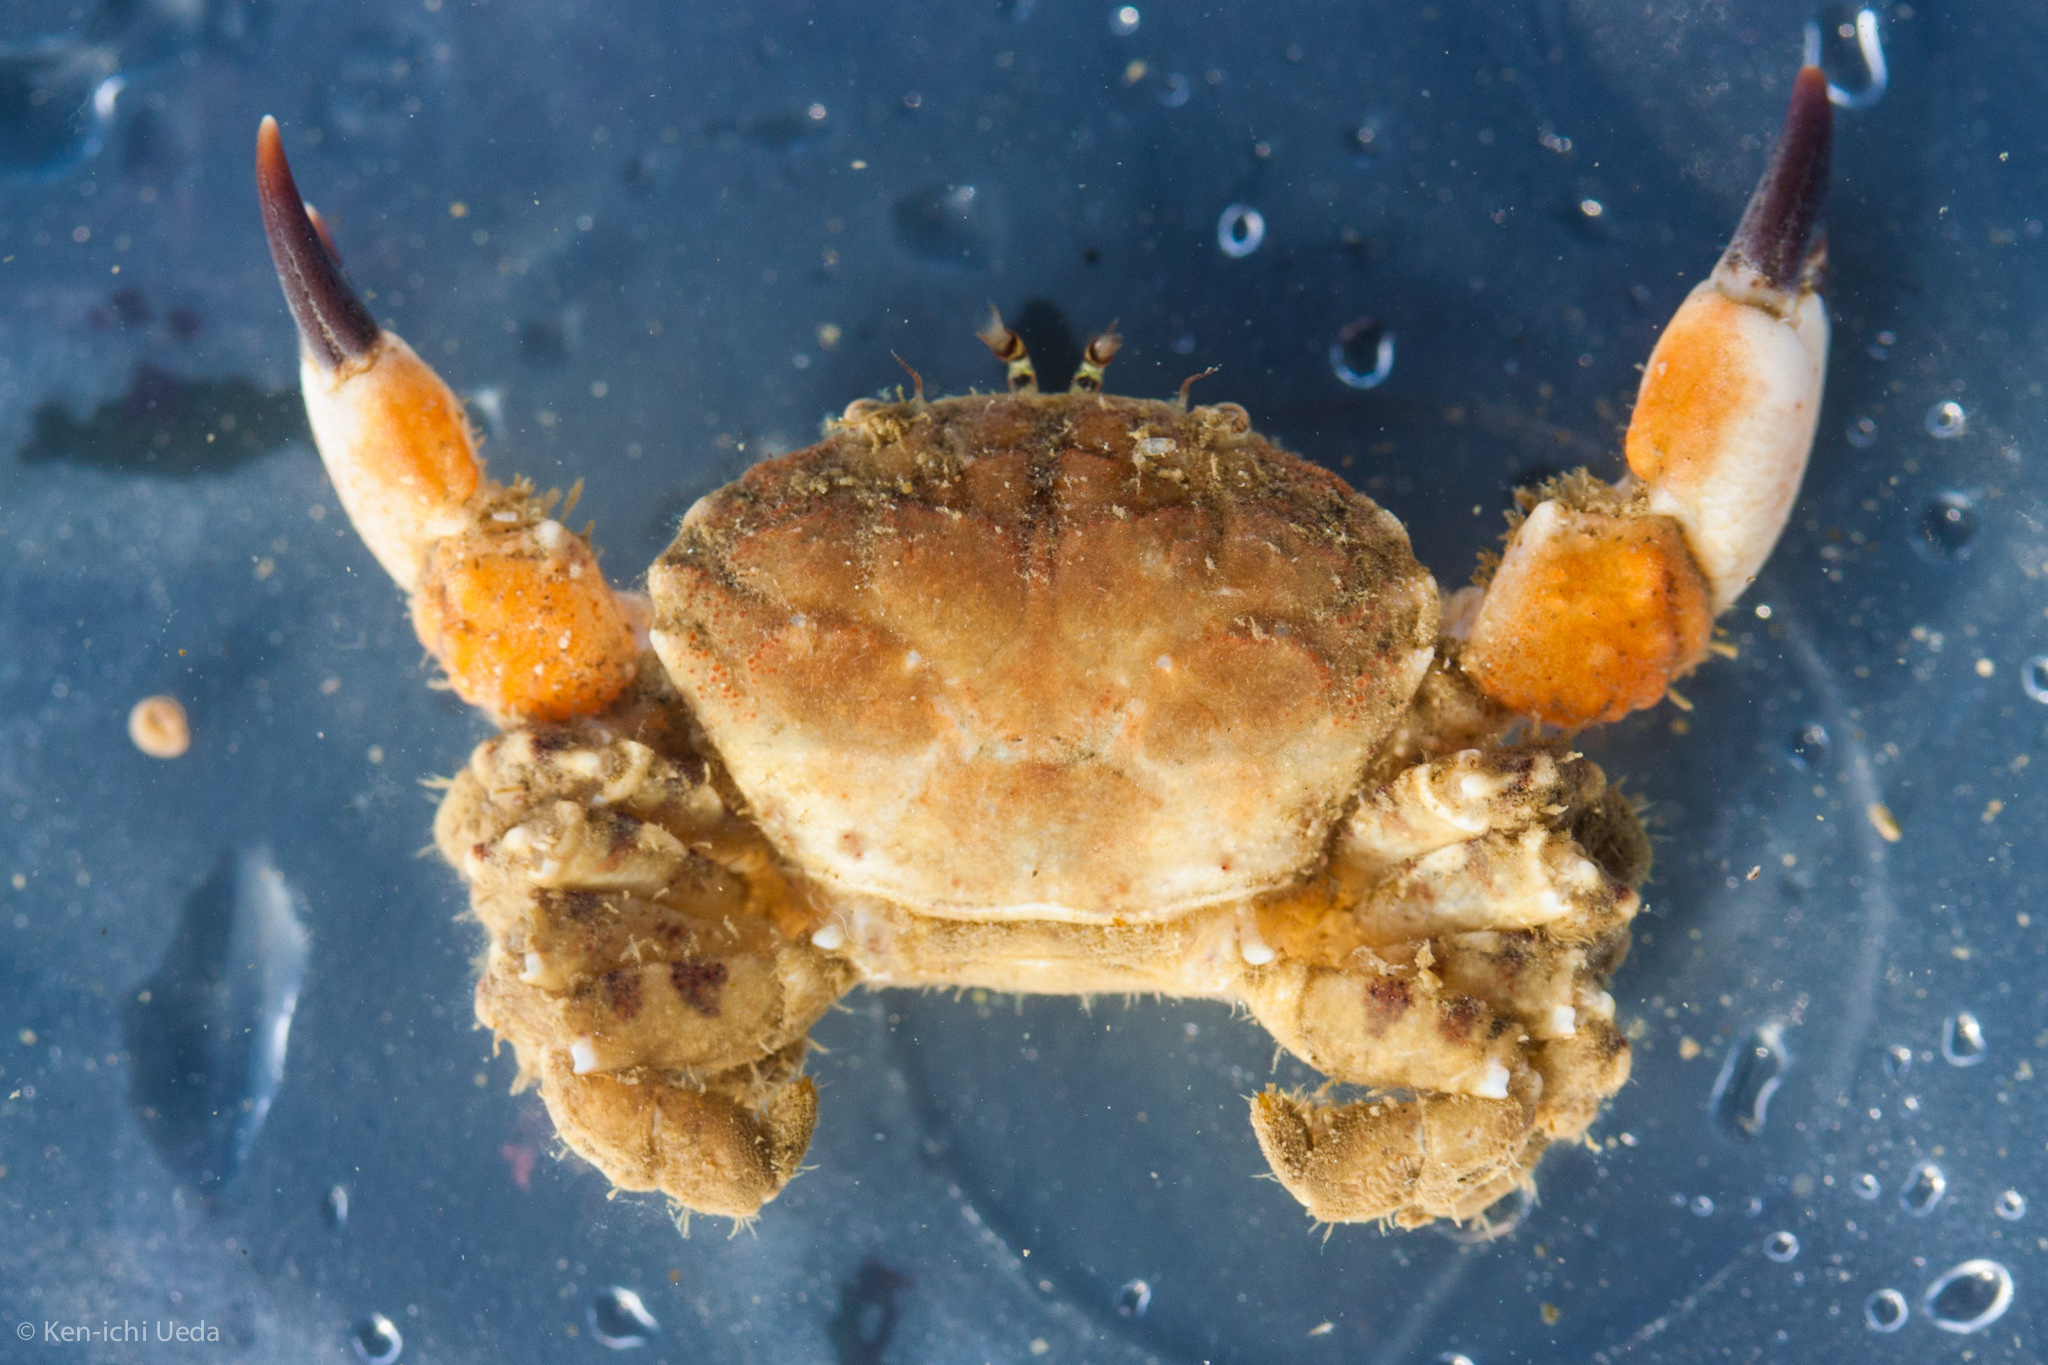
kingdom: Animalia
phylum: Arthropoda
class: Malacostraca
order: Decapoda
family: Panopeidae
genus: Lophopanopeus
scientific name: Lophopanopeus bellus
